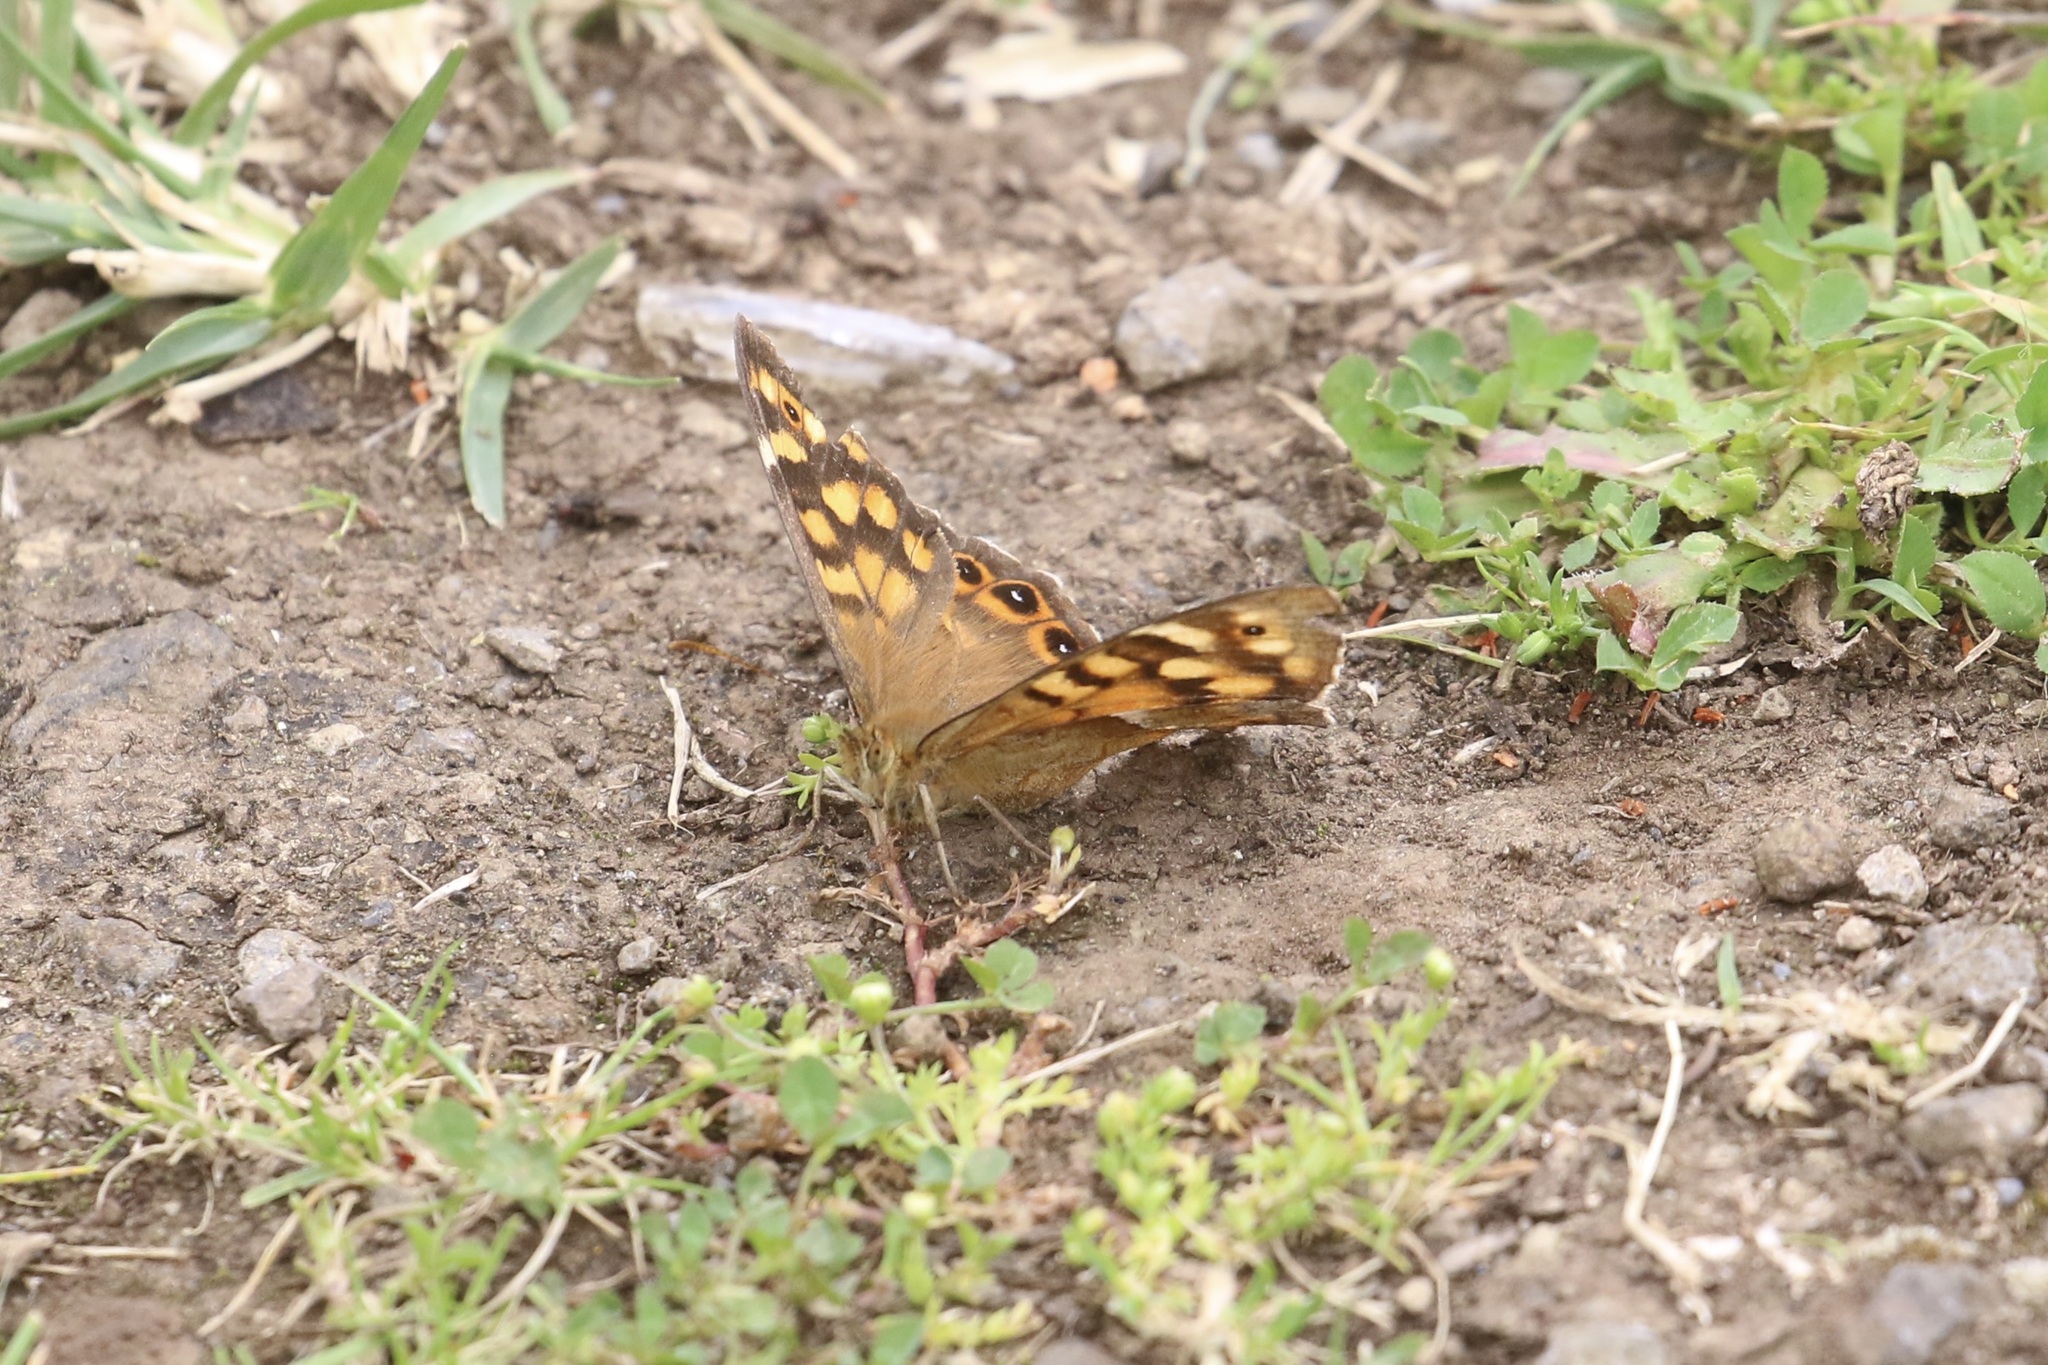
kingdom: Animalia
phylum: Arthropoda
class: Insecta
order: Lepidoptera
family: Nymphalidae
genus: Pararge
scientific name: Pararge aegeria
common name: Speckled wood
